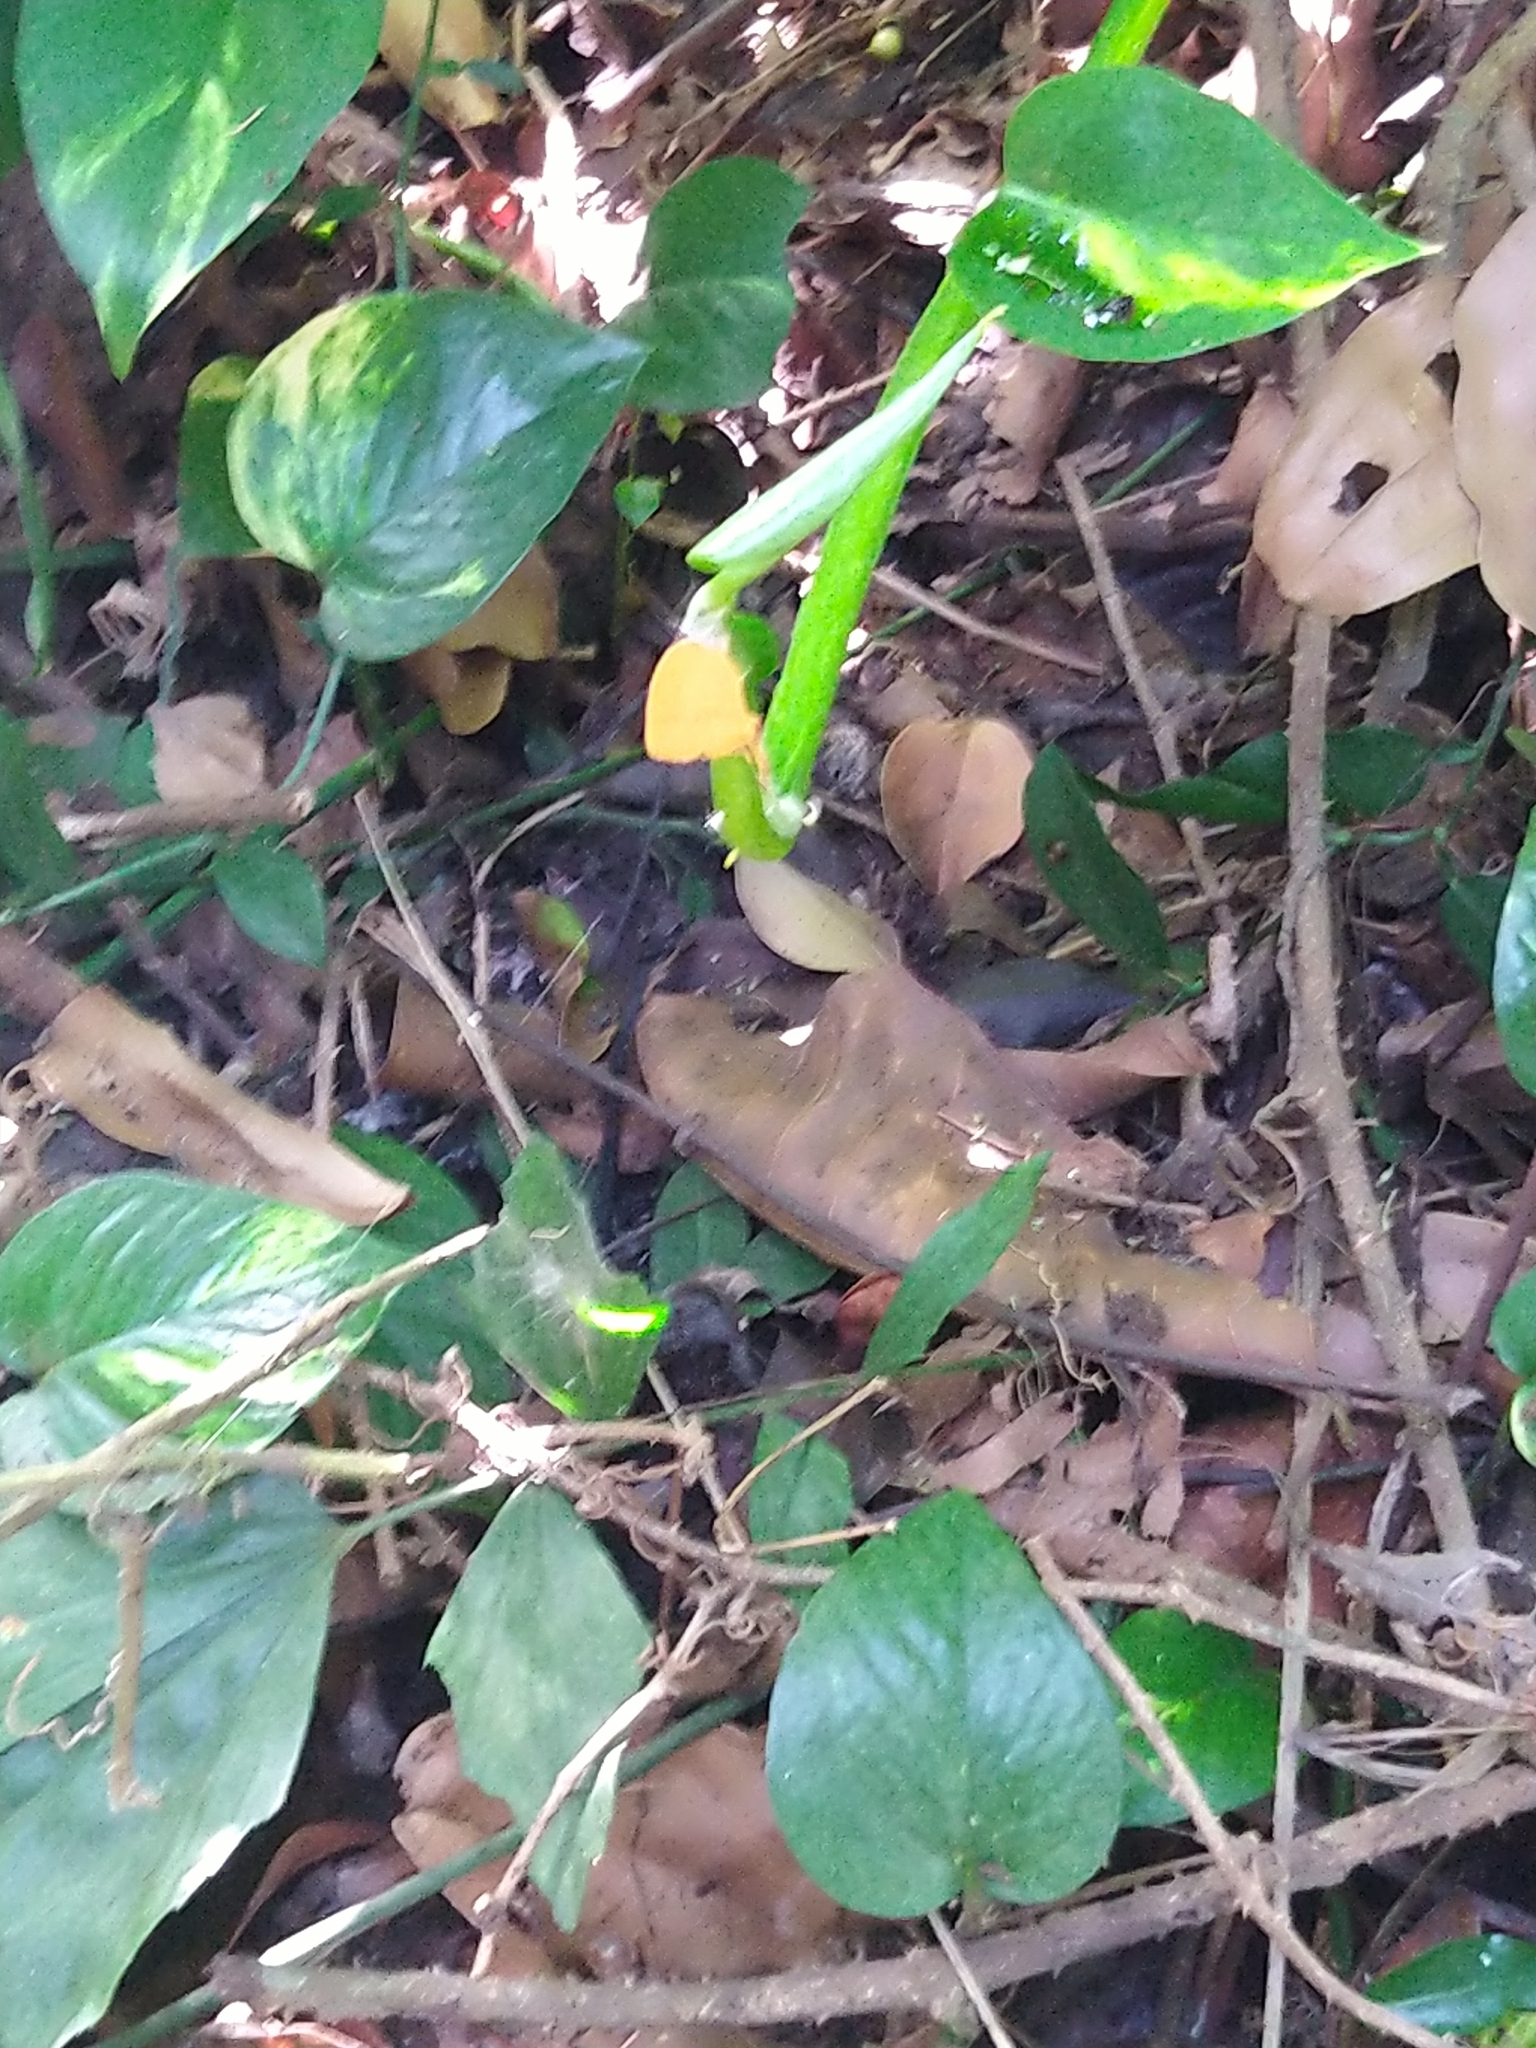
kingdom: Animalia
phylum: Arthropoda
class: Insecta
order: Lepidoptera
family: Lycaenidae
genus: Loxura
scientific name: Loxura atymnus
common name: Common yamfly
